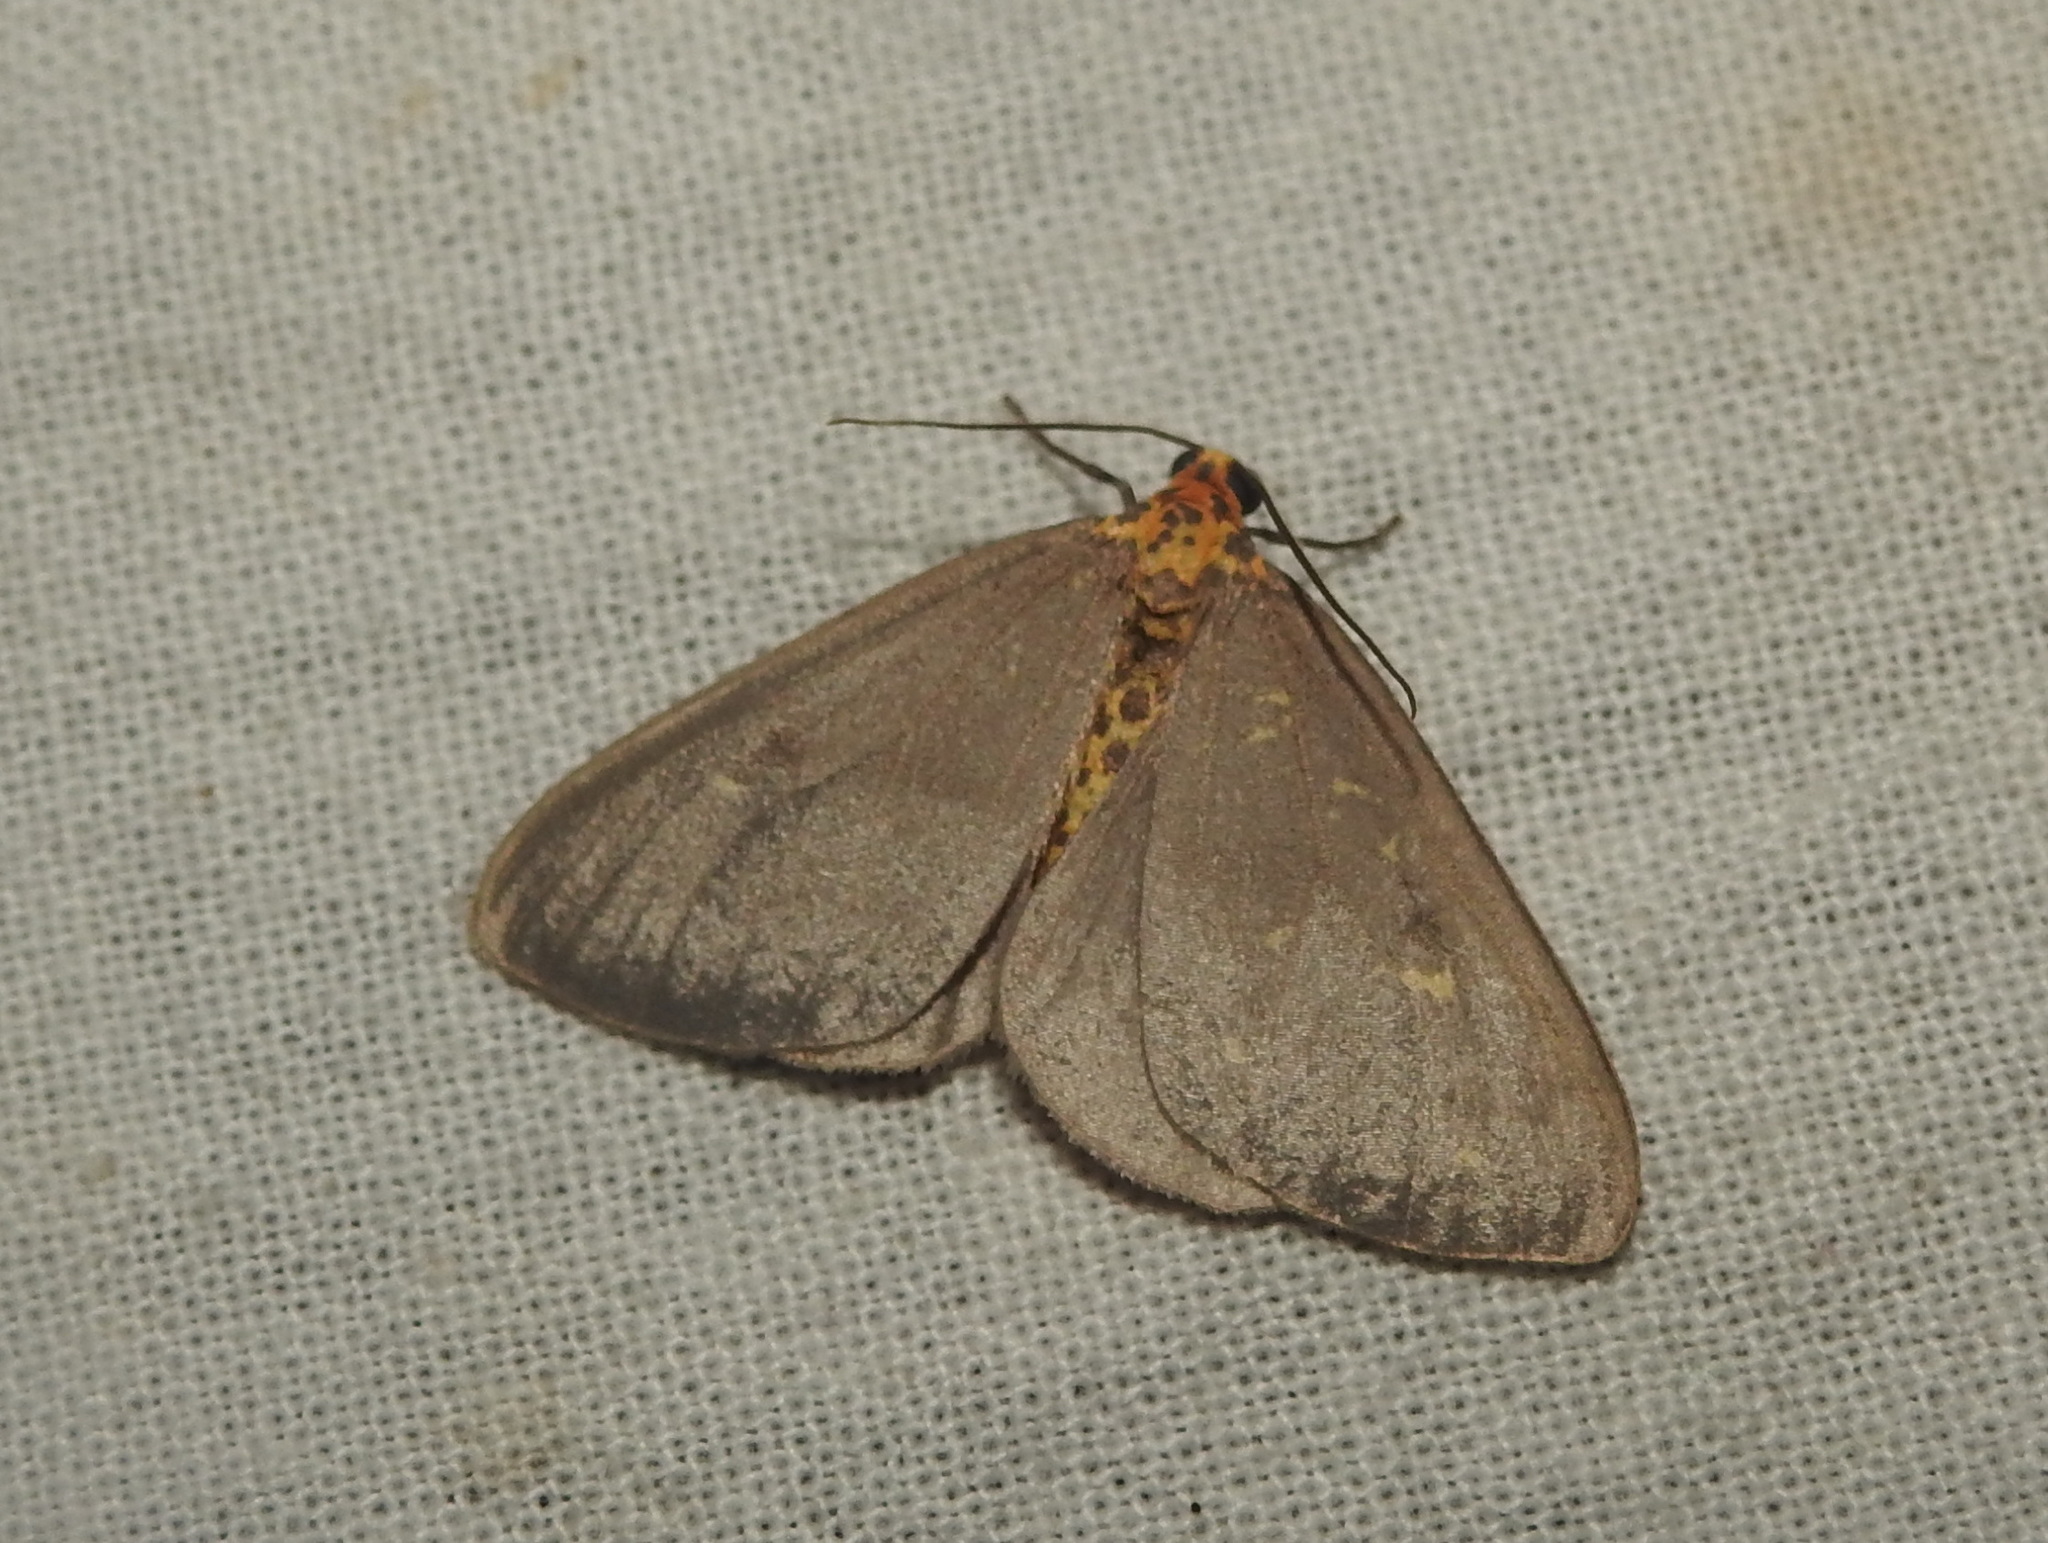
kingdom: Animalia
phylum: Arthropoda
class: Insecta
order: Lepidoptera
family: Geometridae
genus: Abraxas
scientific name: Abraxas poliaria
